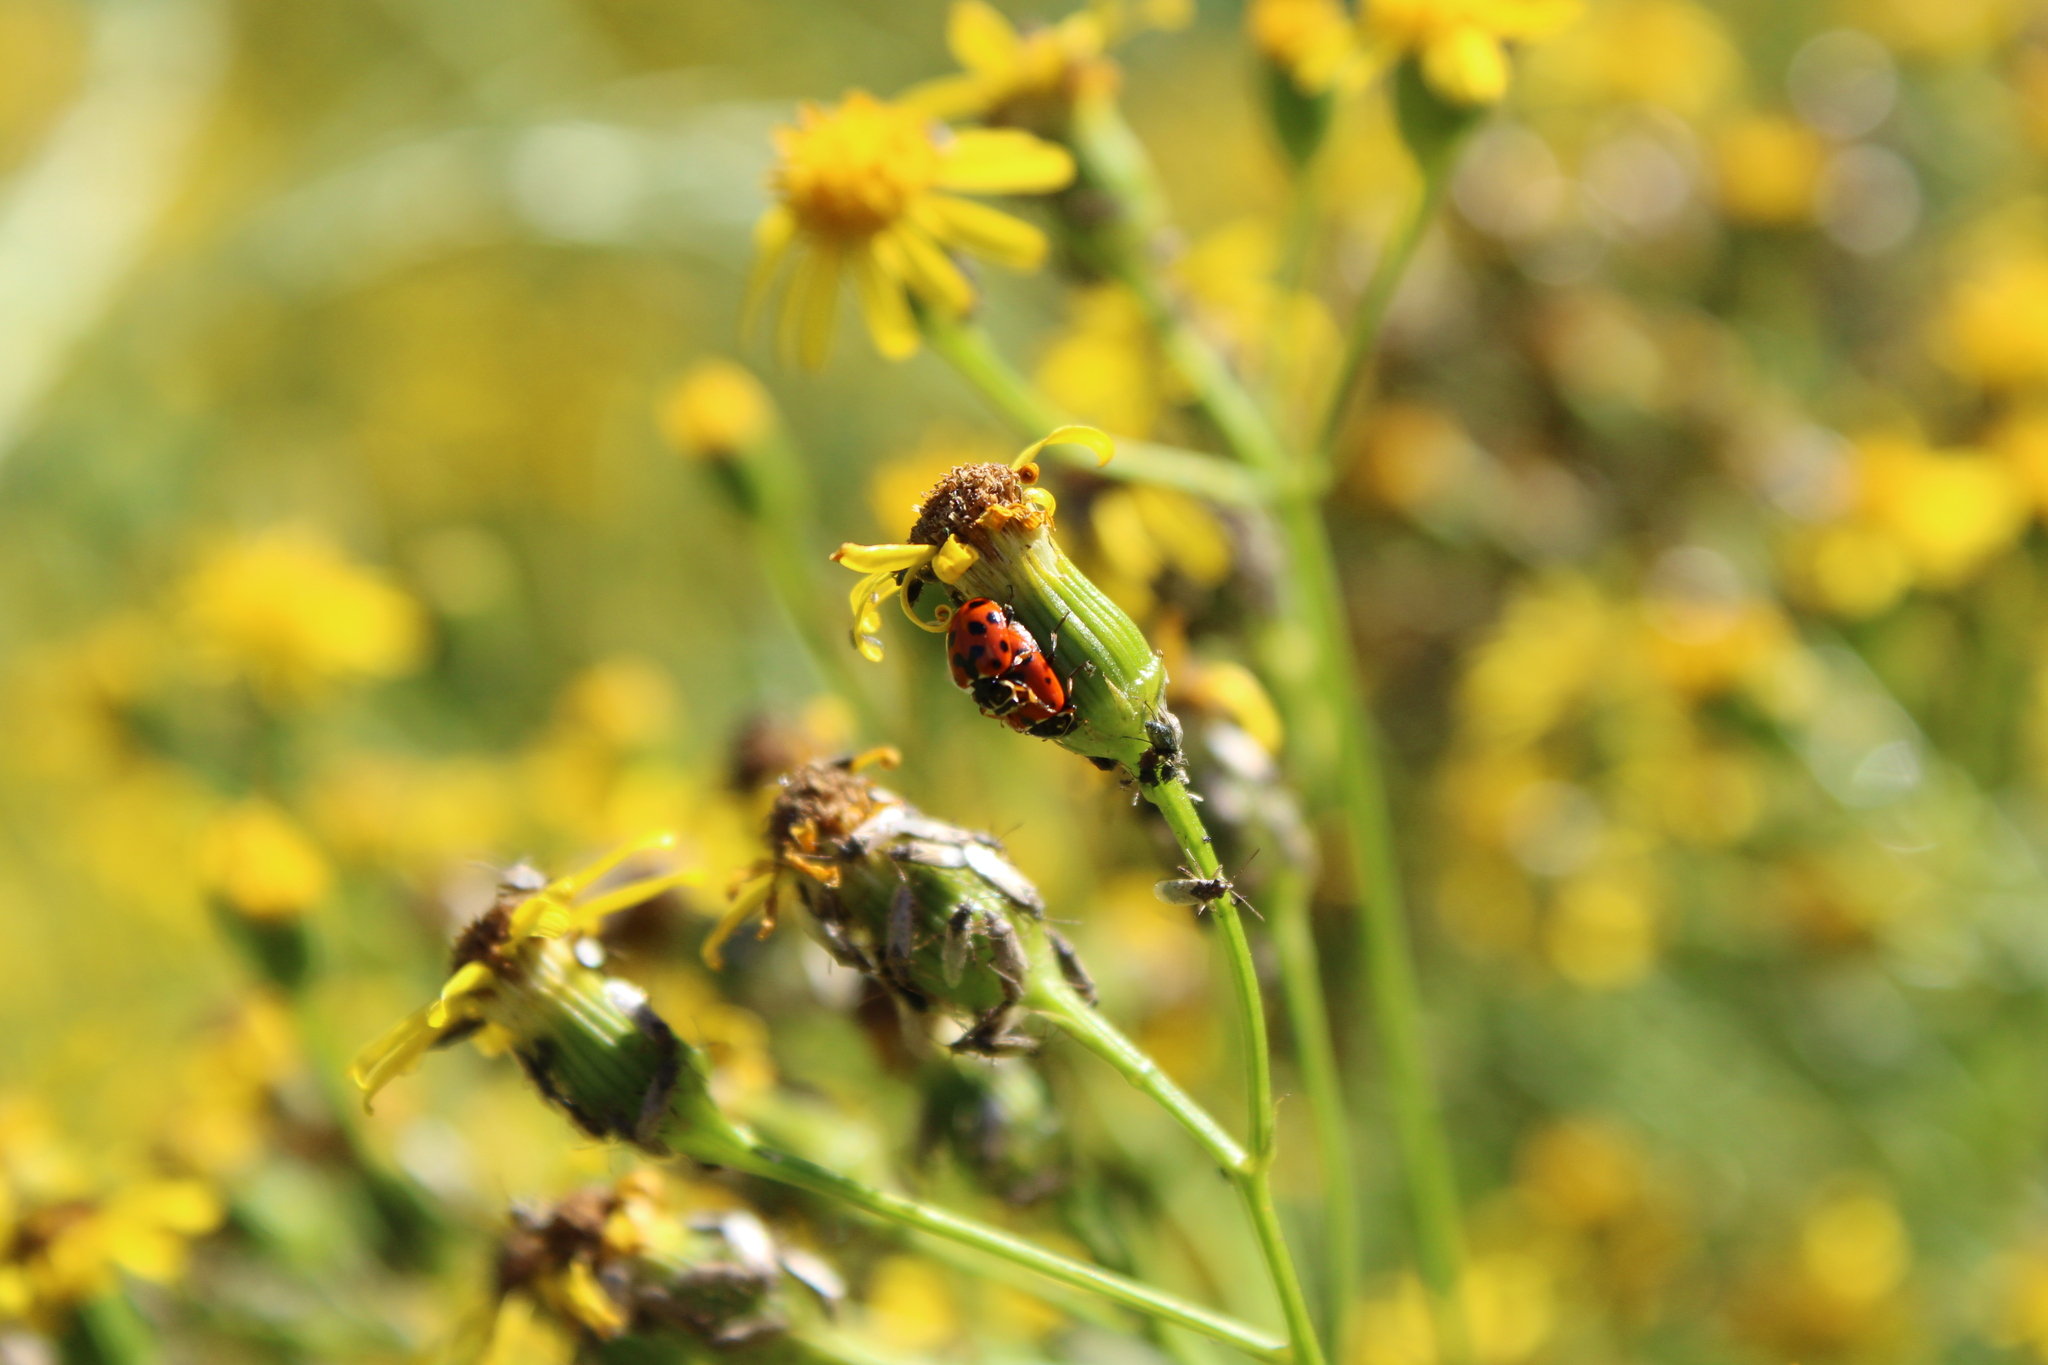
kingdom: Animalia
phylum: Arthropoda
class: Insecta
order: Coleoptera
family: Coccinellidae
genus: Hippodamia
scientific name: Hippodamia variegata
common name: Ladybird beetle
